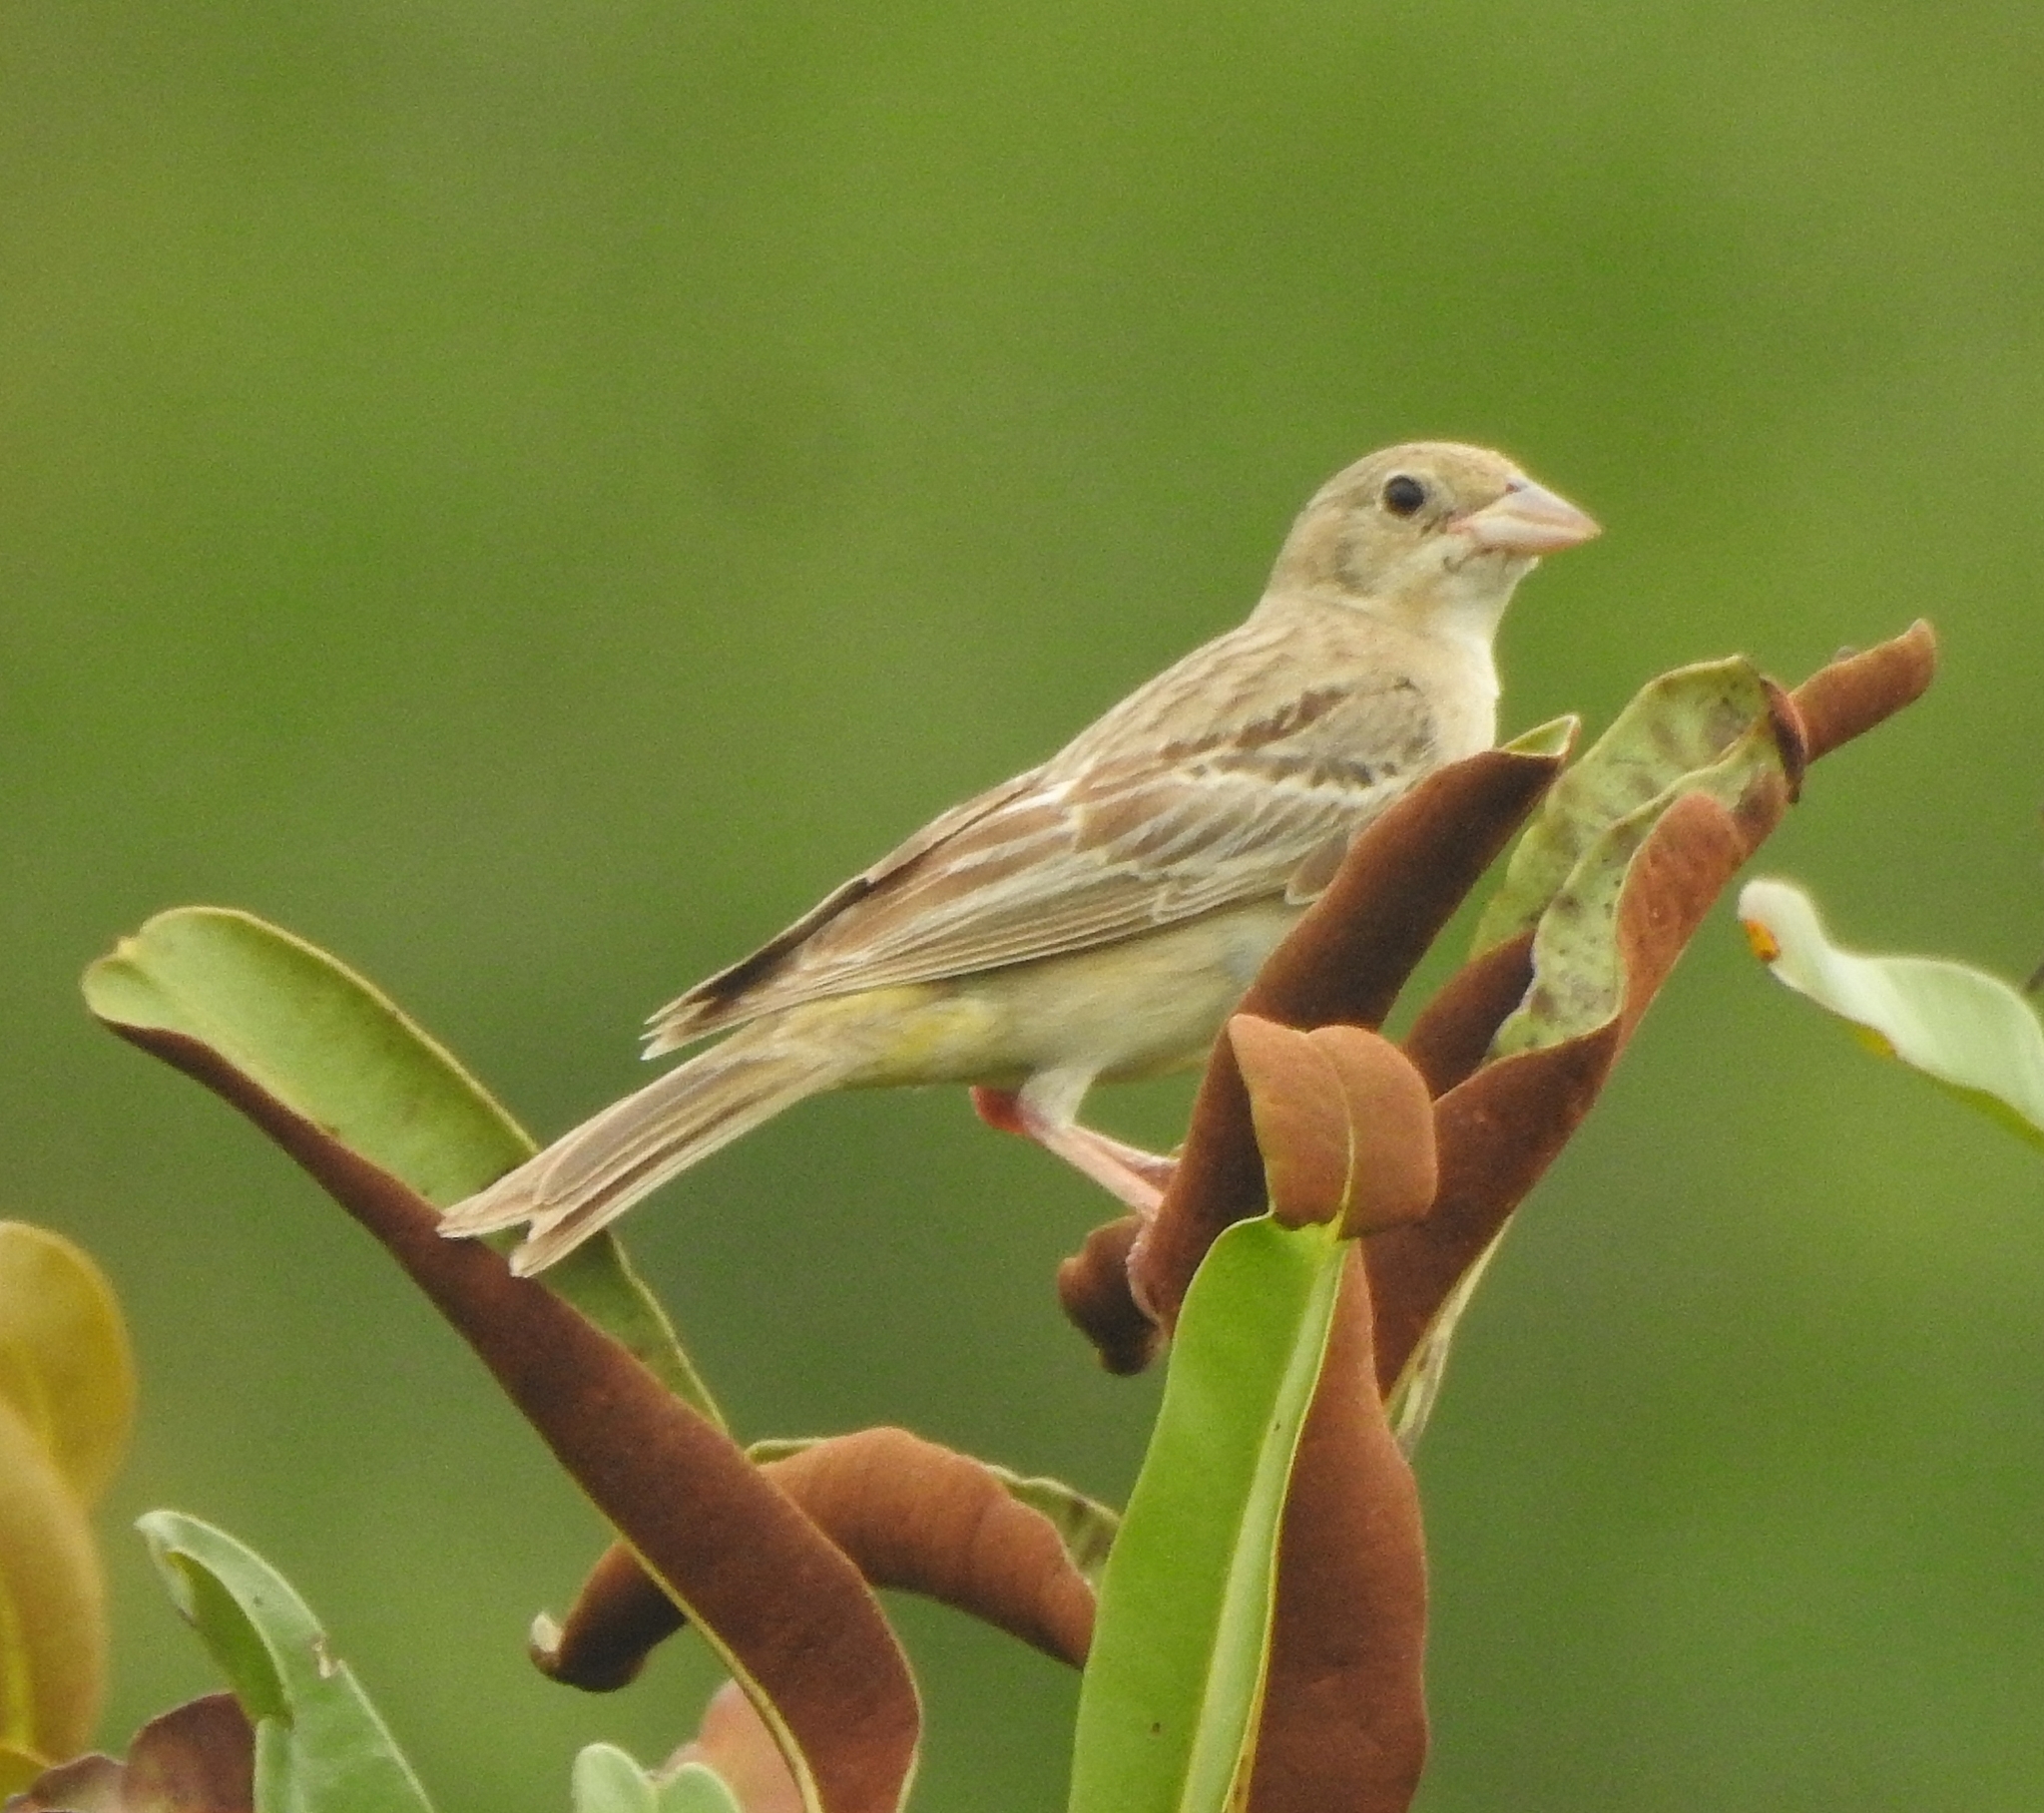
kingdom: Animalia
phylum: Chordata
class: Aves
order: Passeriformes
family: Emberizidae
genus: Emberiza
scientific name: Emberiza melanocephala
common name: Black-headed bunting
